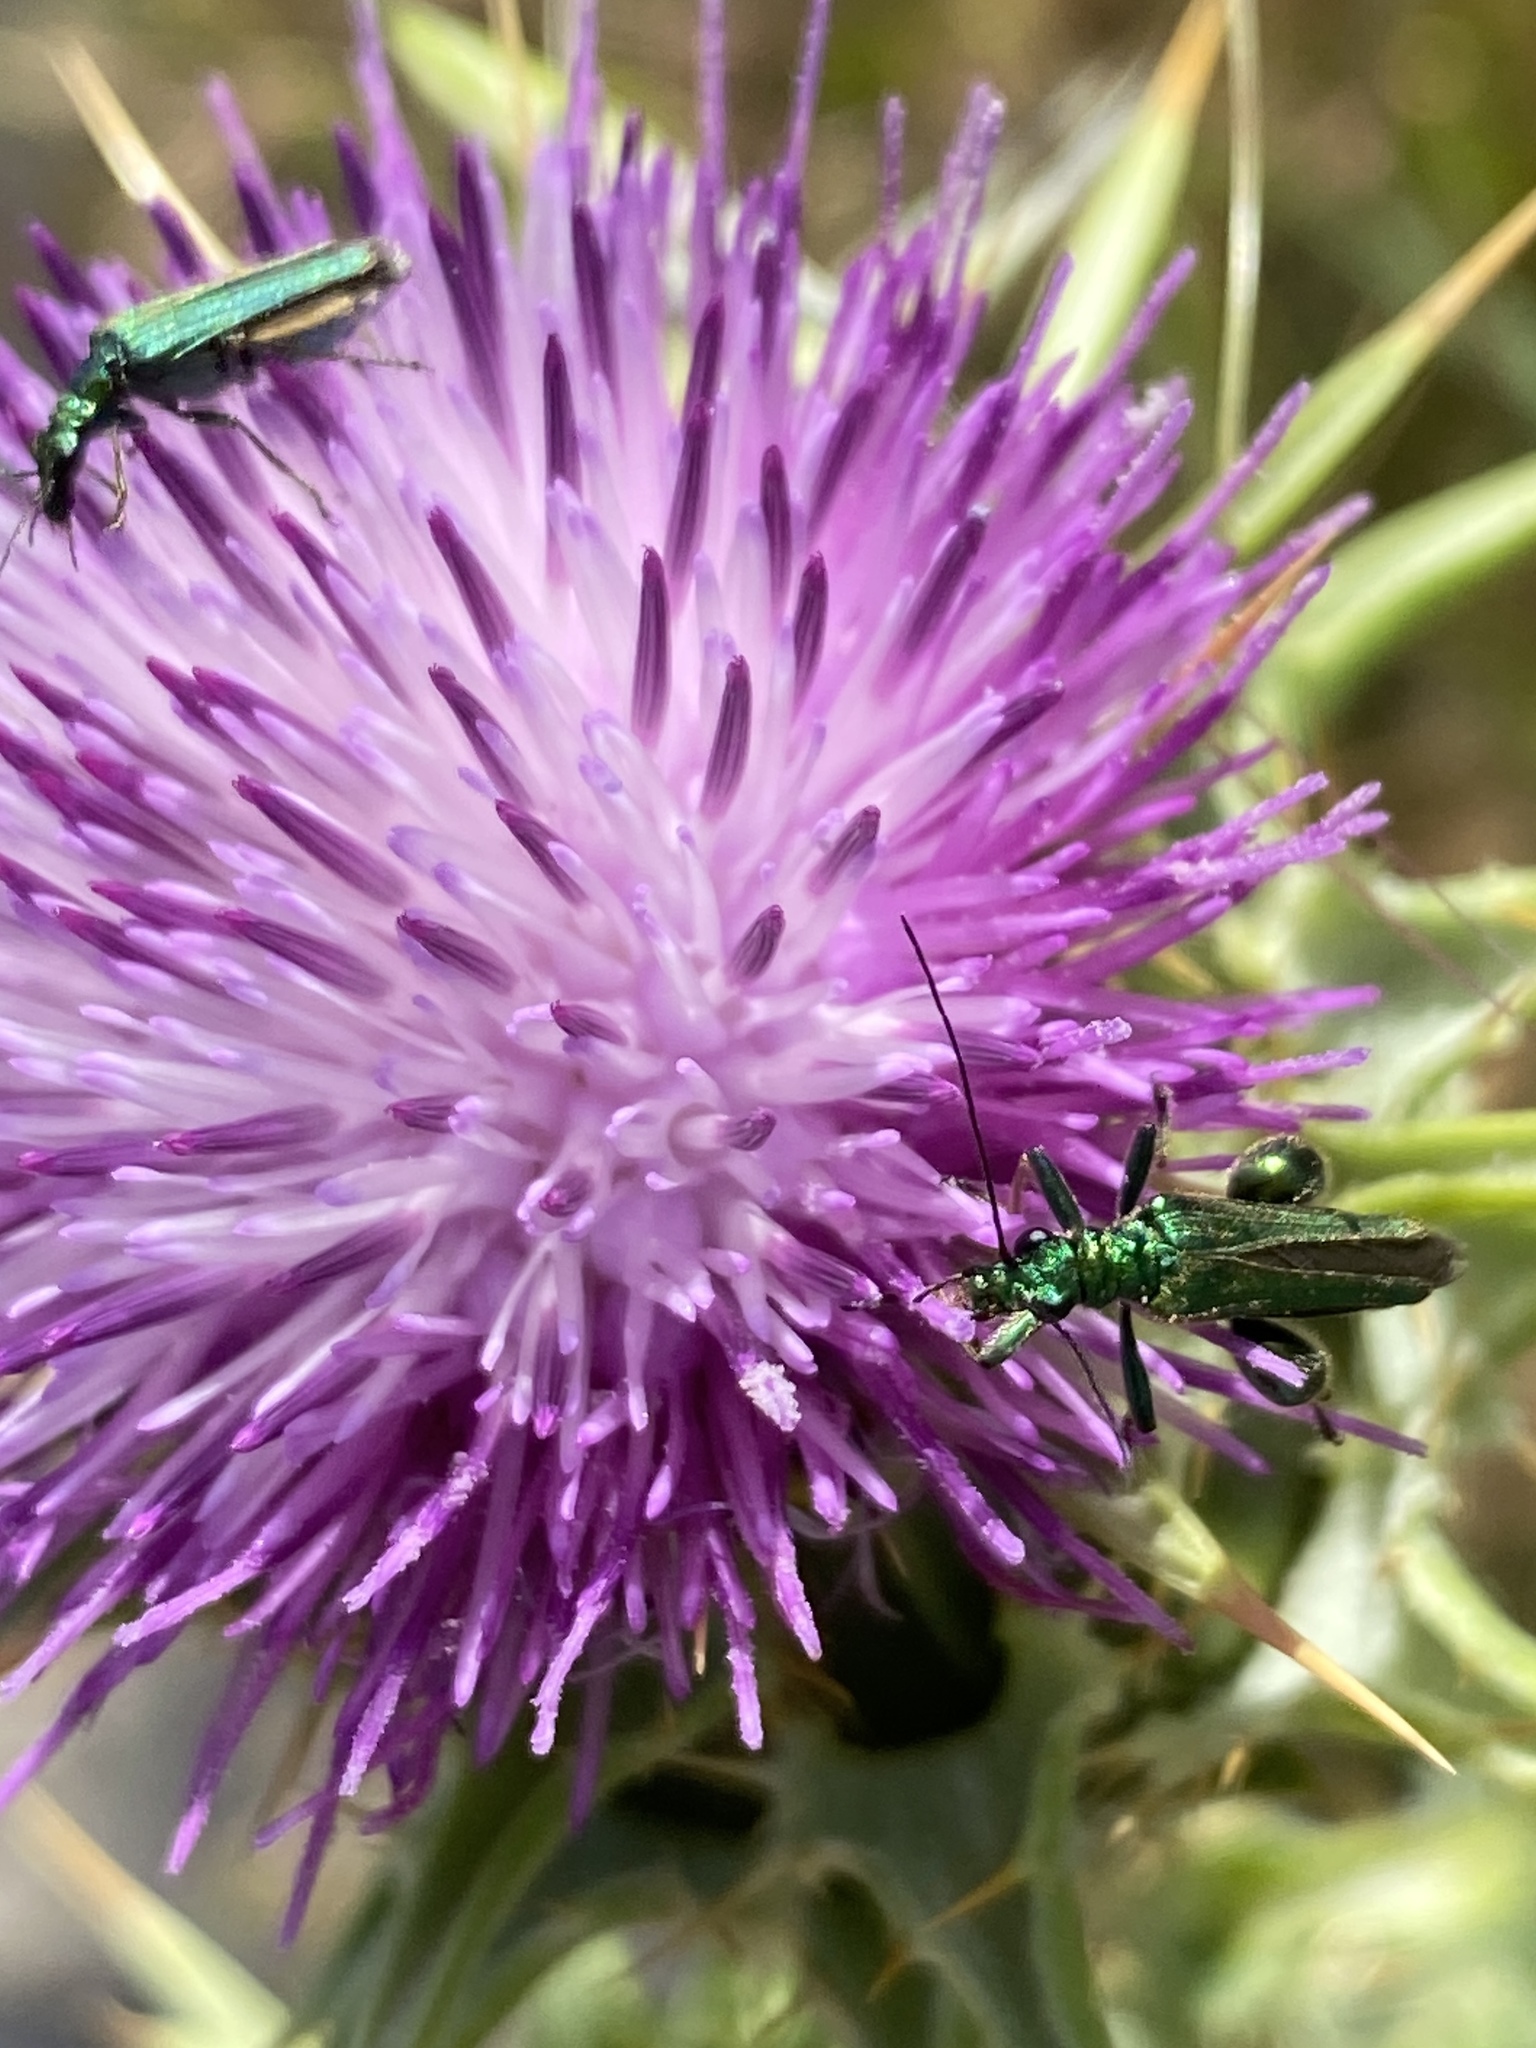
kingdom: Animalia
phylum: Arthropoda
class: Insecta
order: Coleoptera
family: Oedemeridae
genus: Oedemera
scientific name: Oedemera nobilis
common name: Swollen-thighed beetle
